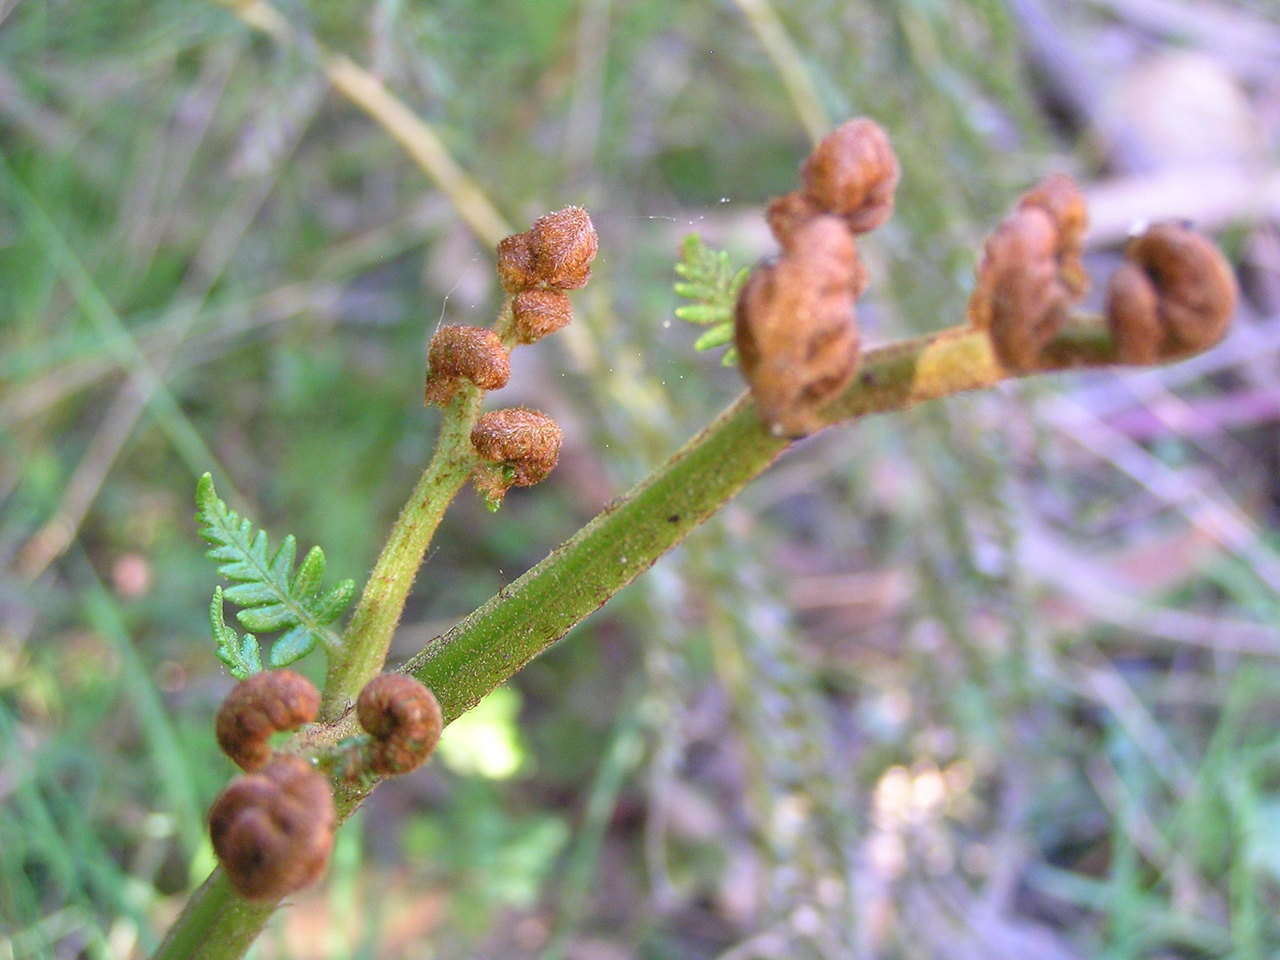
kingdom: Plantae
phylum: Tracheophyta
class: Polypodiopsida
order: Polypodiales
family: Dennstaedtiaceae
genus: Pteridium
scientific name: Pteridium esculentum
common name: Bracken fern
